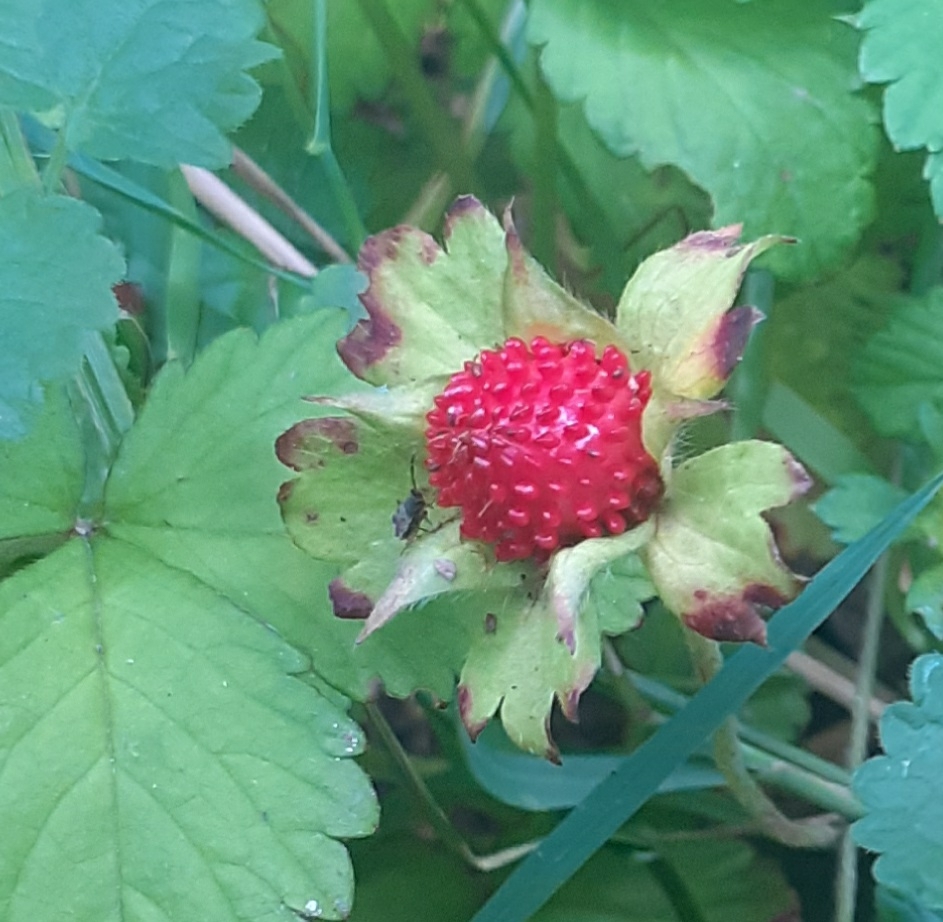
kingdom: Plantae
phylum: Tracheophyta
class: Magnoliopsida
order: Rosales
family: Rosaceae
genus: Potentilla
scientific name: Potentilla indica
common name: Yellow-flowered strawberry
